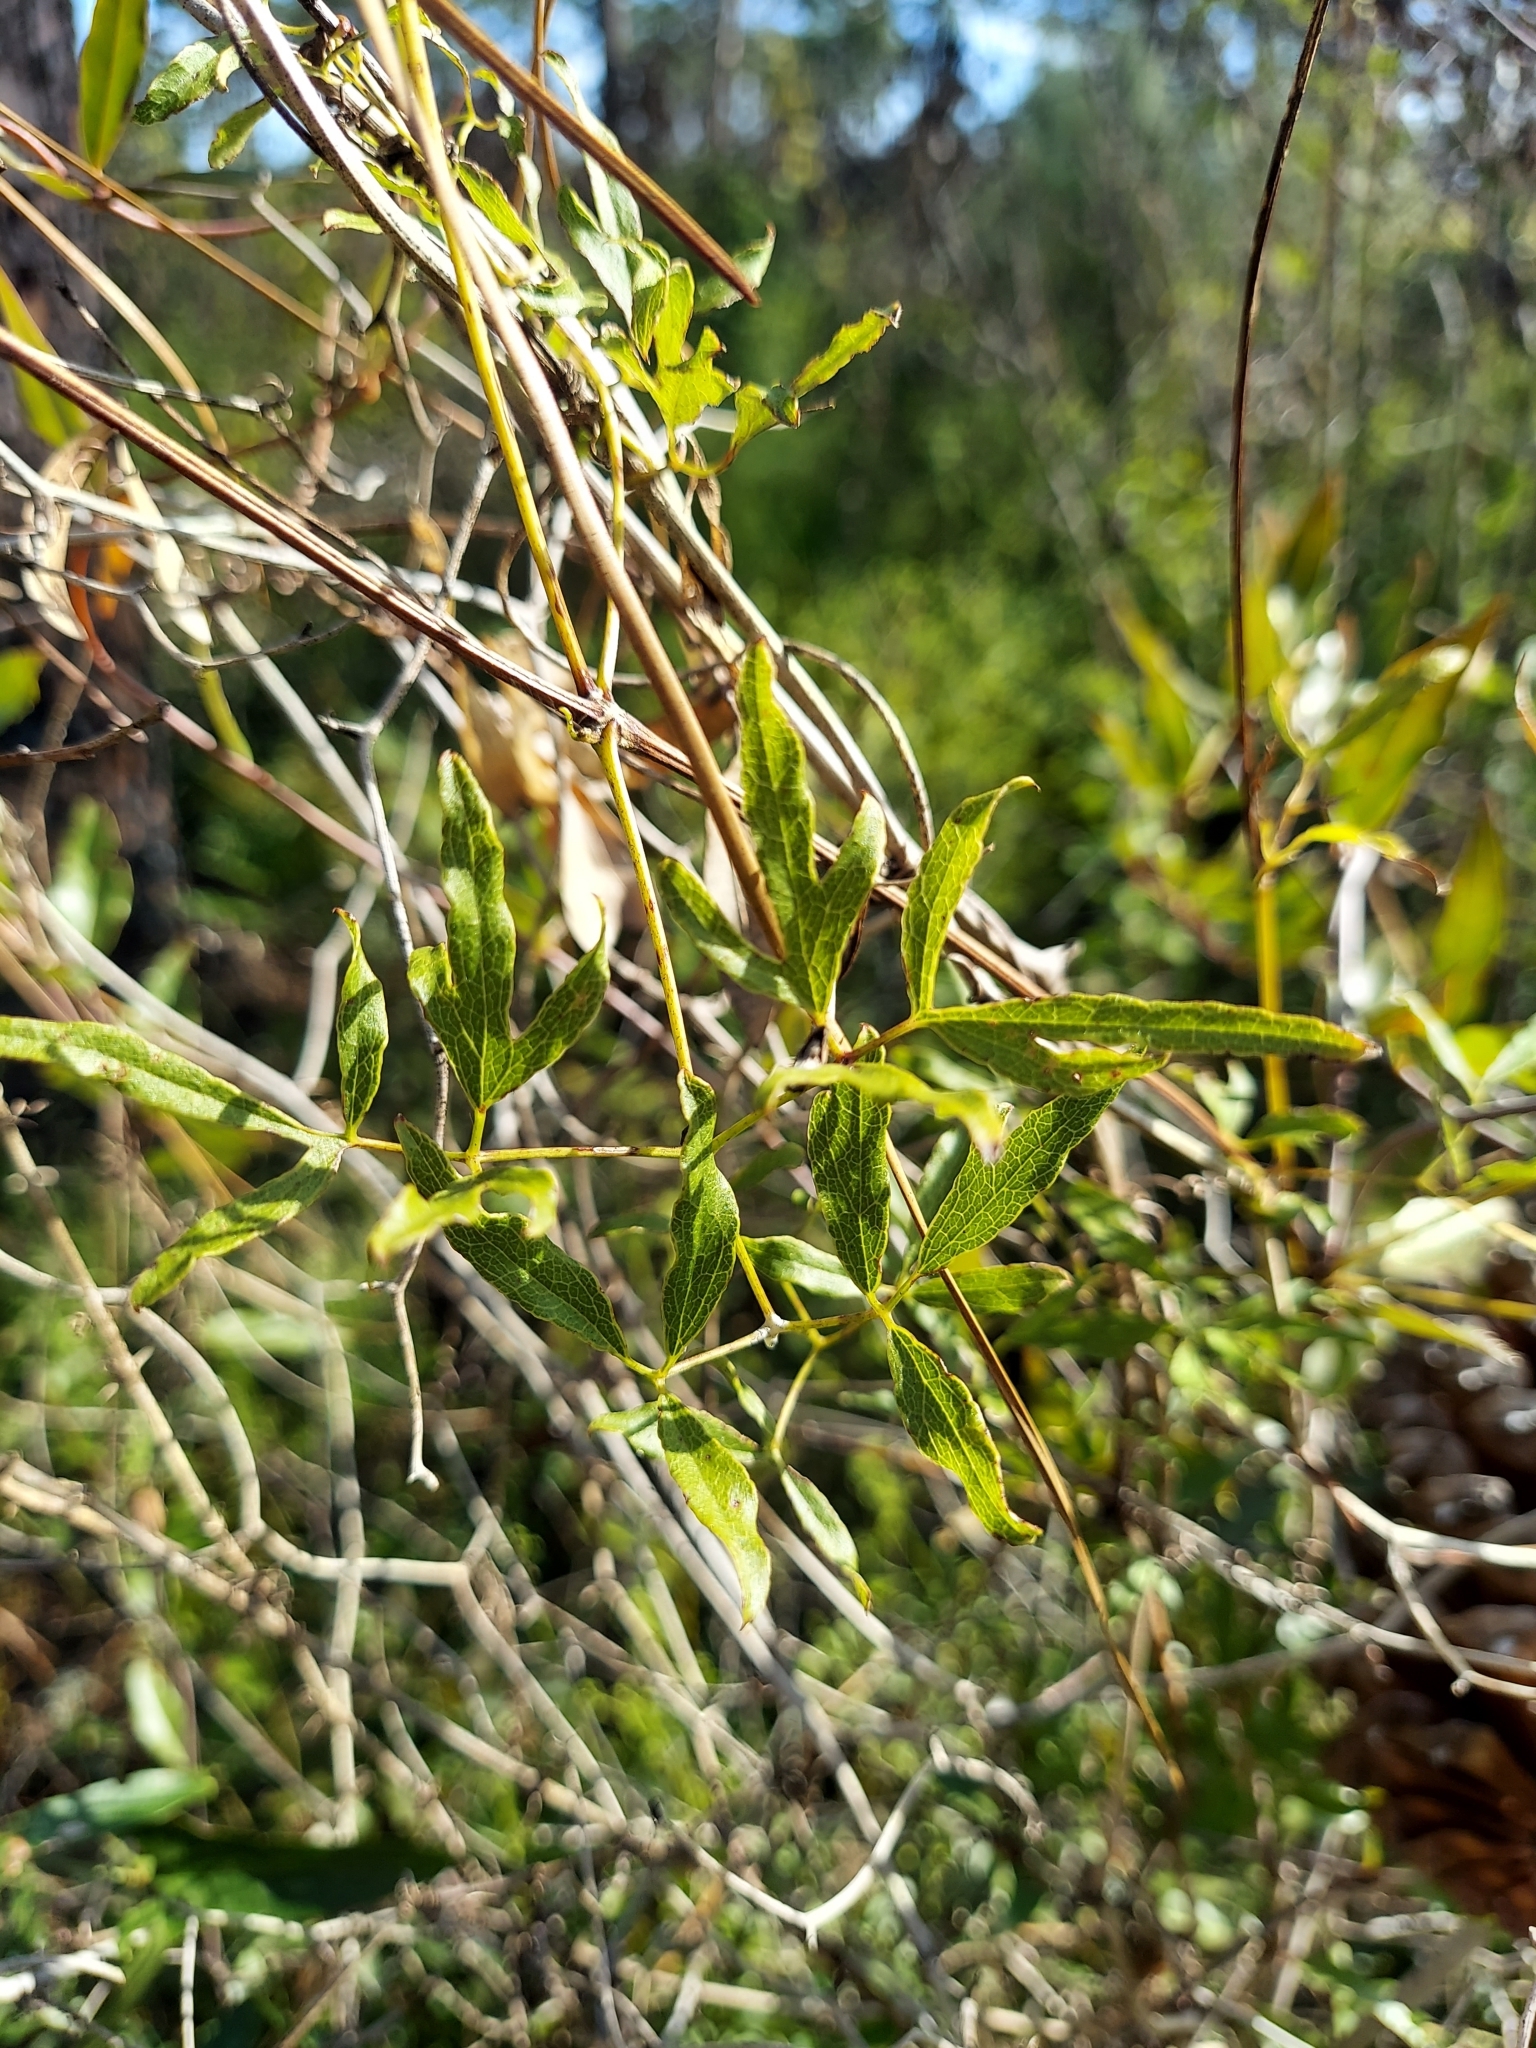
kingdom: Plantae
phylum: Tracheophyta
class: Magnoliopsida
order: Ranunculales
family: Ranunculaceae
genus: Clematis
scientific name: Clematis reticulata
